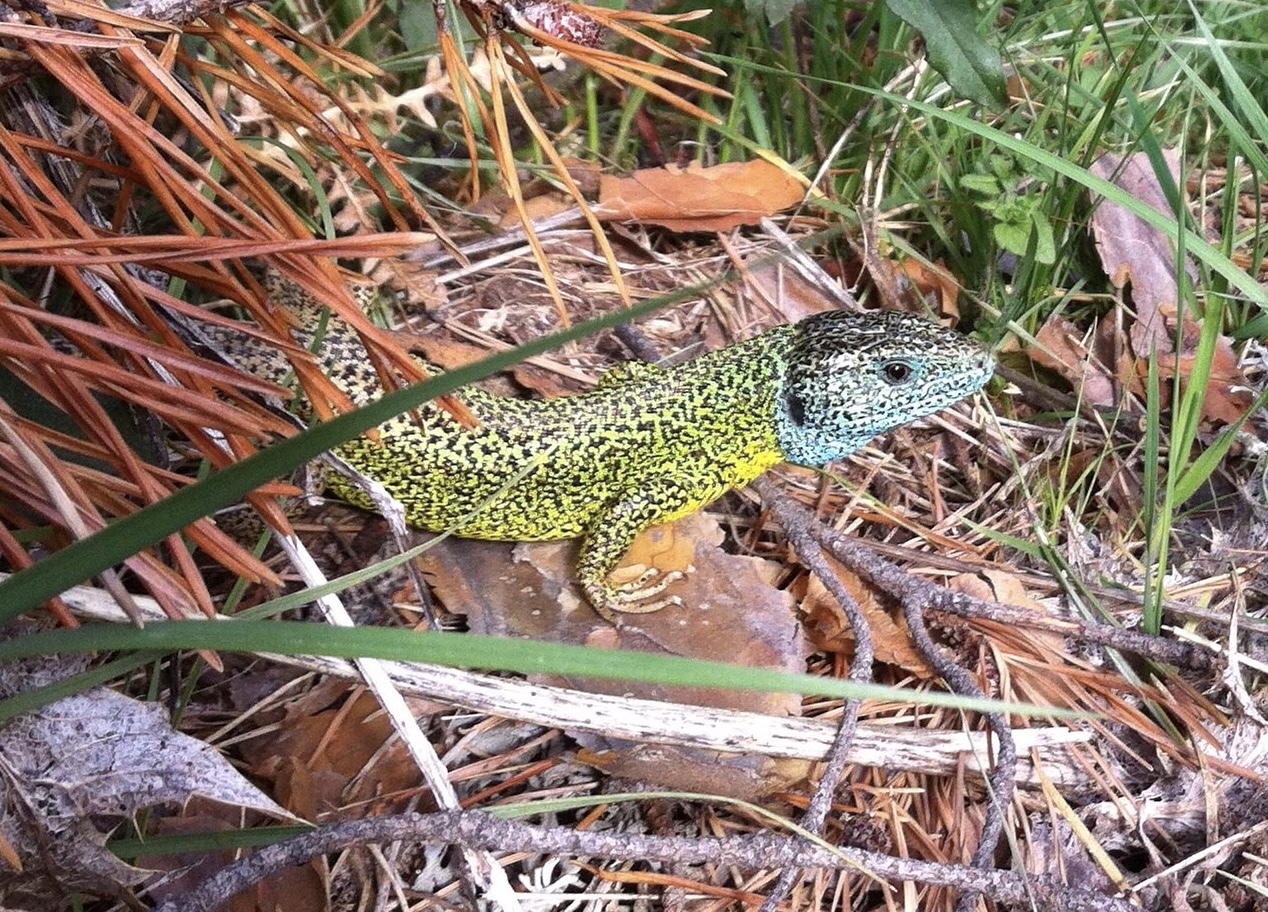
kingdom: Animalia
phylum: Chordata
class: Squamata
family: Lacertidae
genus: Lacerta
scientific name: Lacerta schreiberi
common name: Iberian emerald lizard
